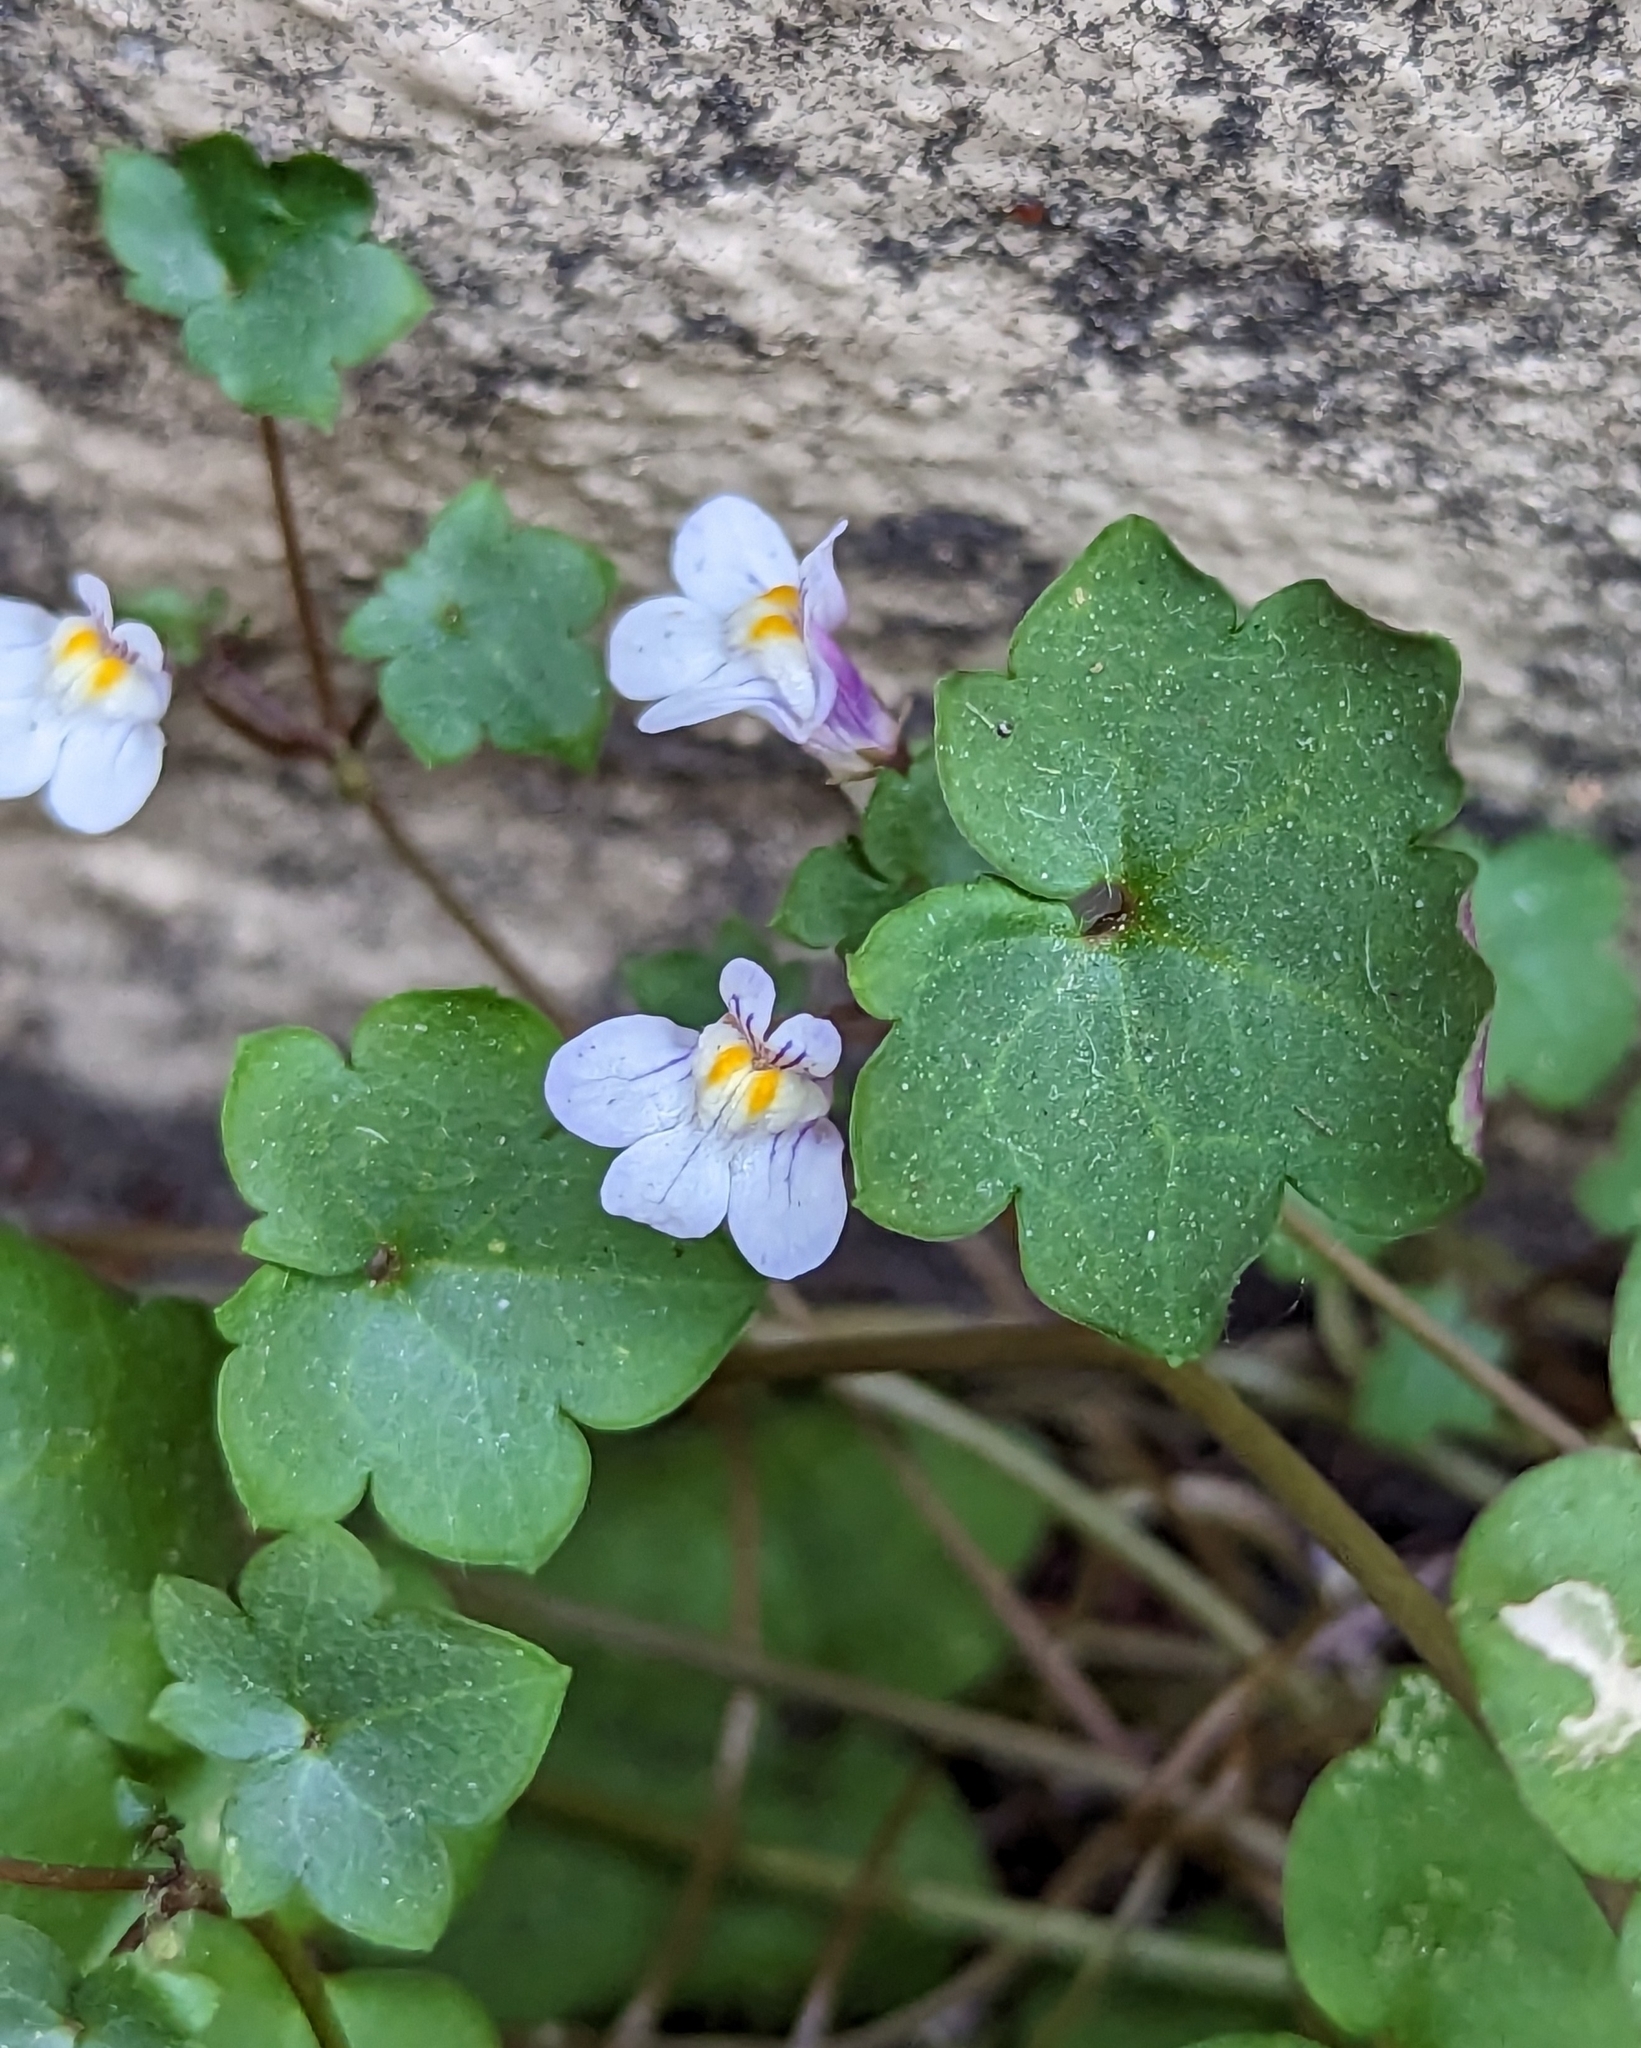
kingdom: Plantae
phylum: Tracheophyta
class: Magnoliopsida
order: Lamiales
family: Plantaginaceae
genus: Cymbalaria
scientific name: Cymbalaria muralis
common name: Ivy-leaved toadflax
